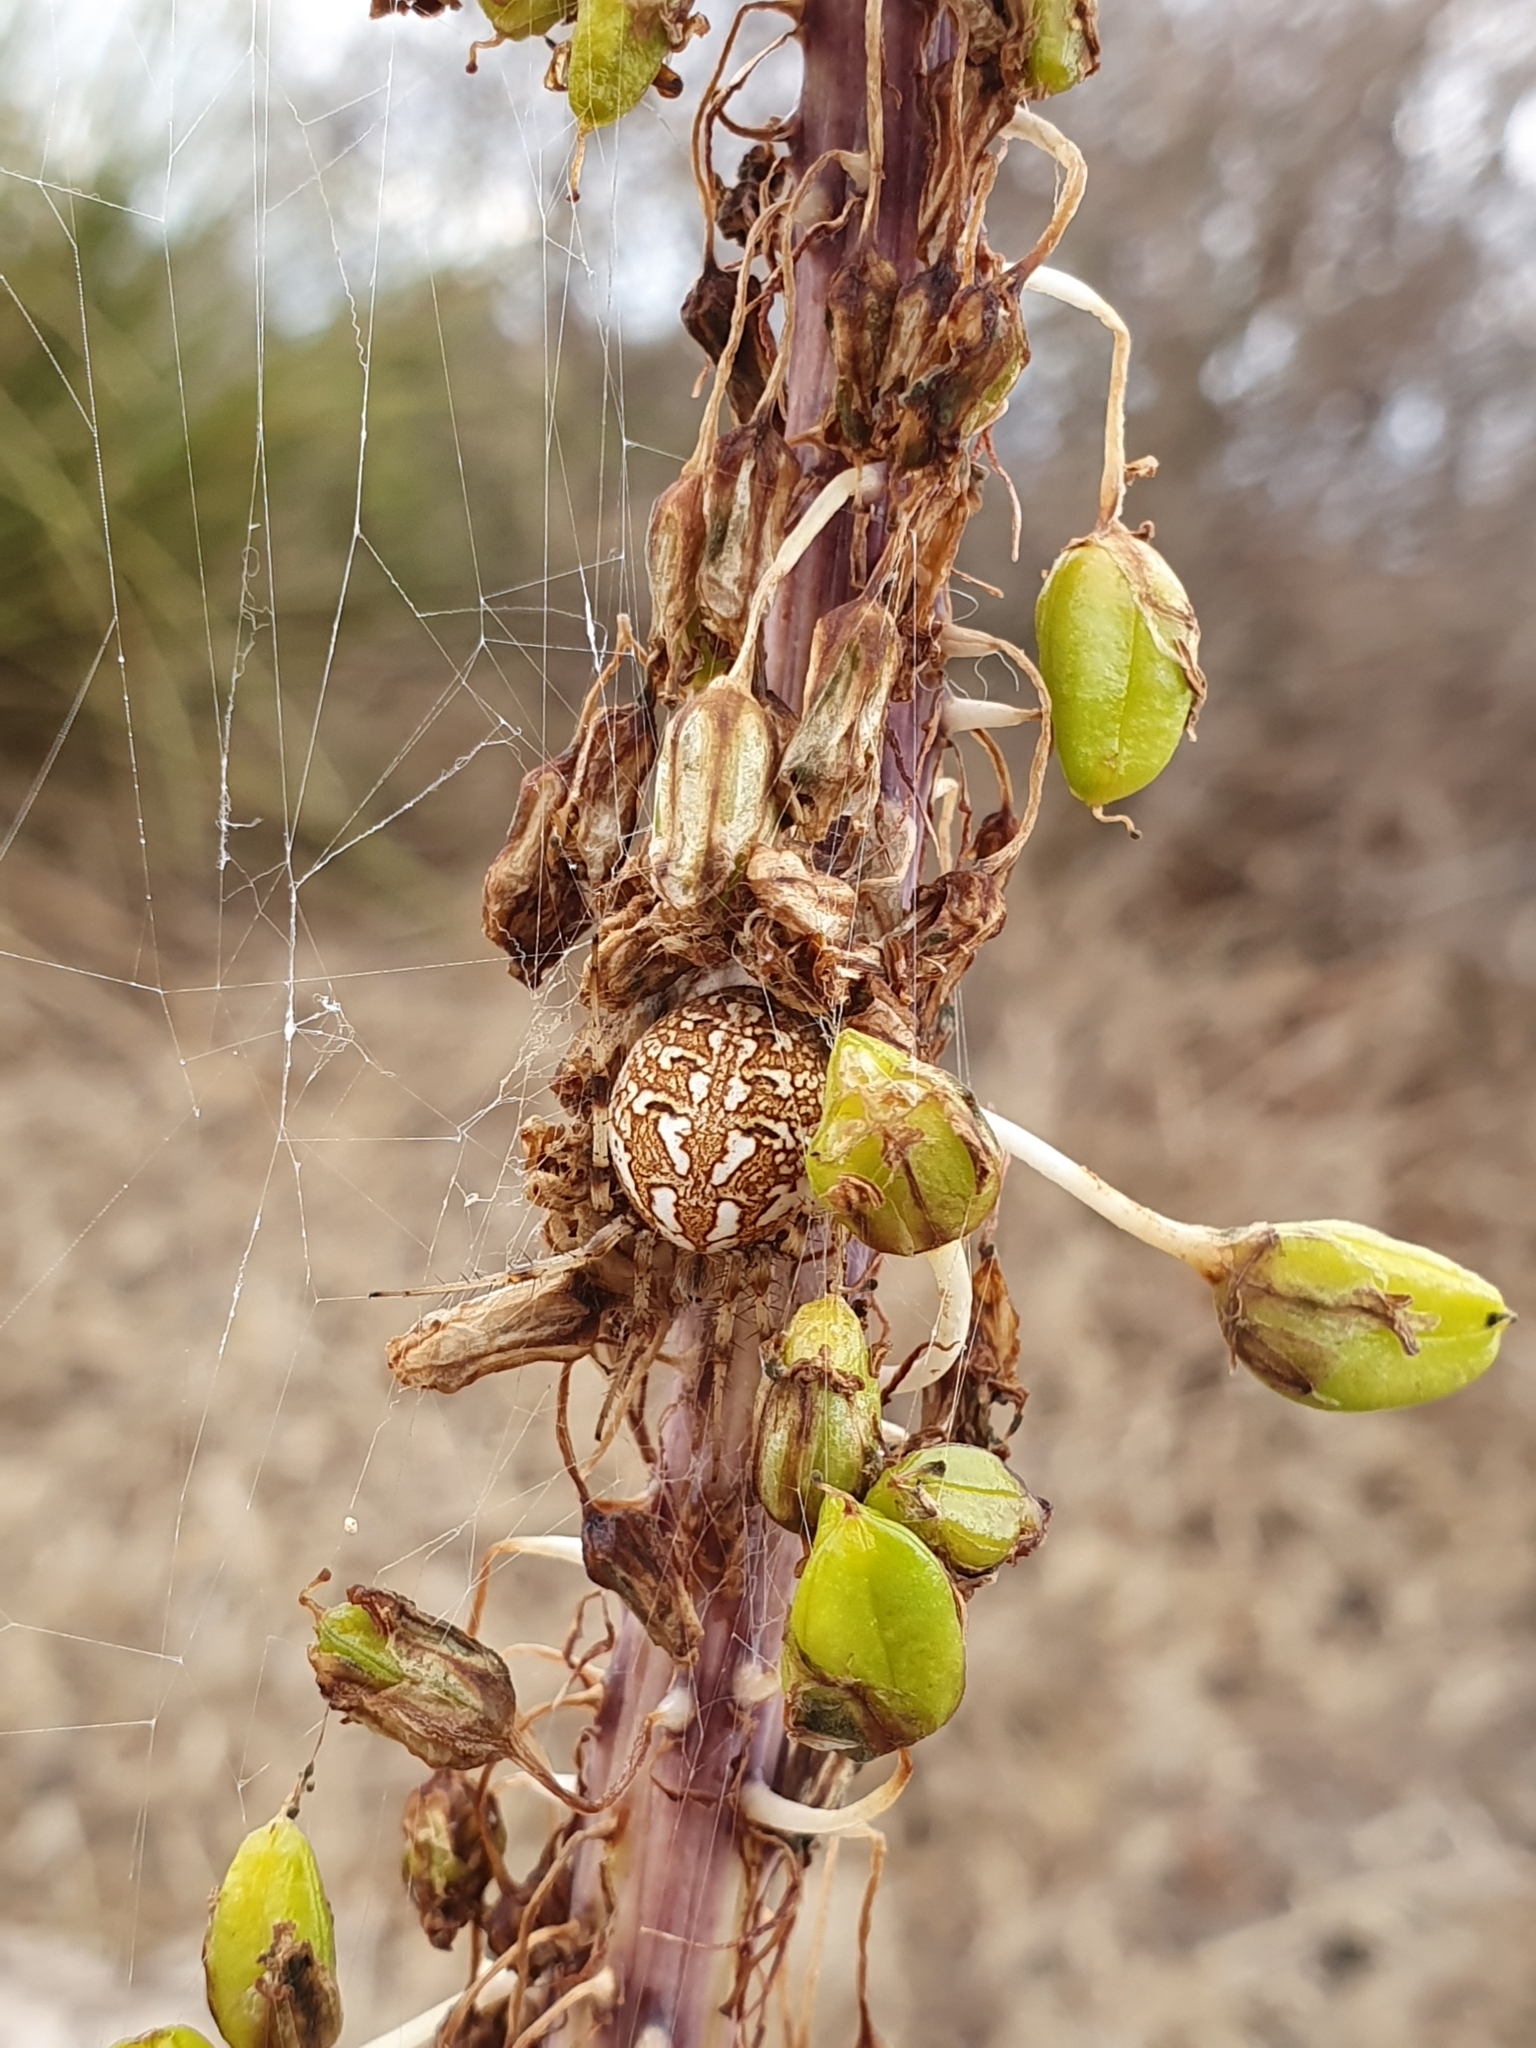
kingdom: Animalia
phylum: Arthropoda
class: Arachnida
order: Araneae
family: Araneidae
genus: Neoscona
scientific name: Neoscona byzanthina
